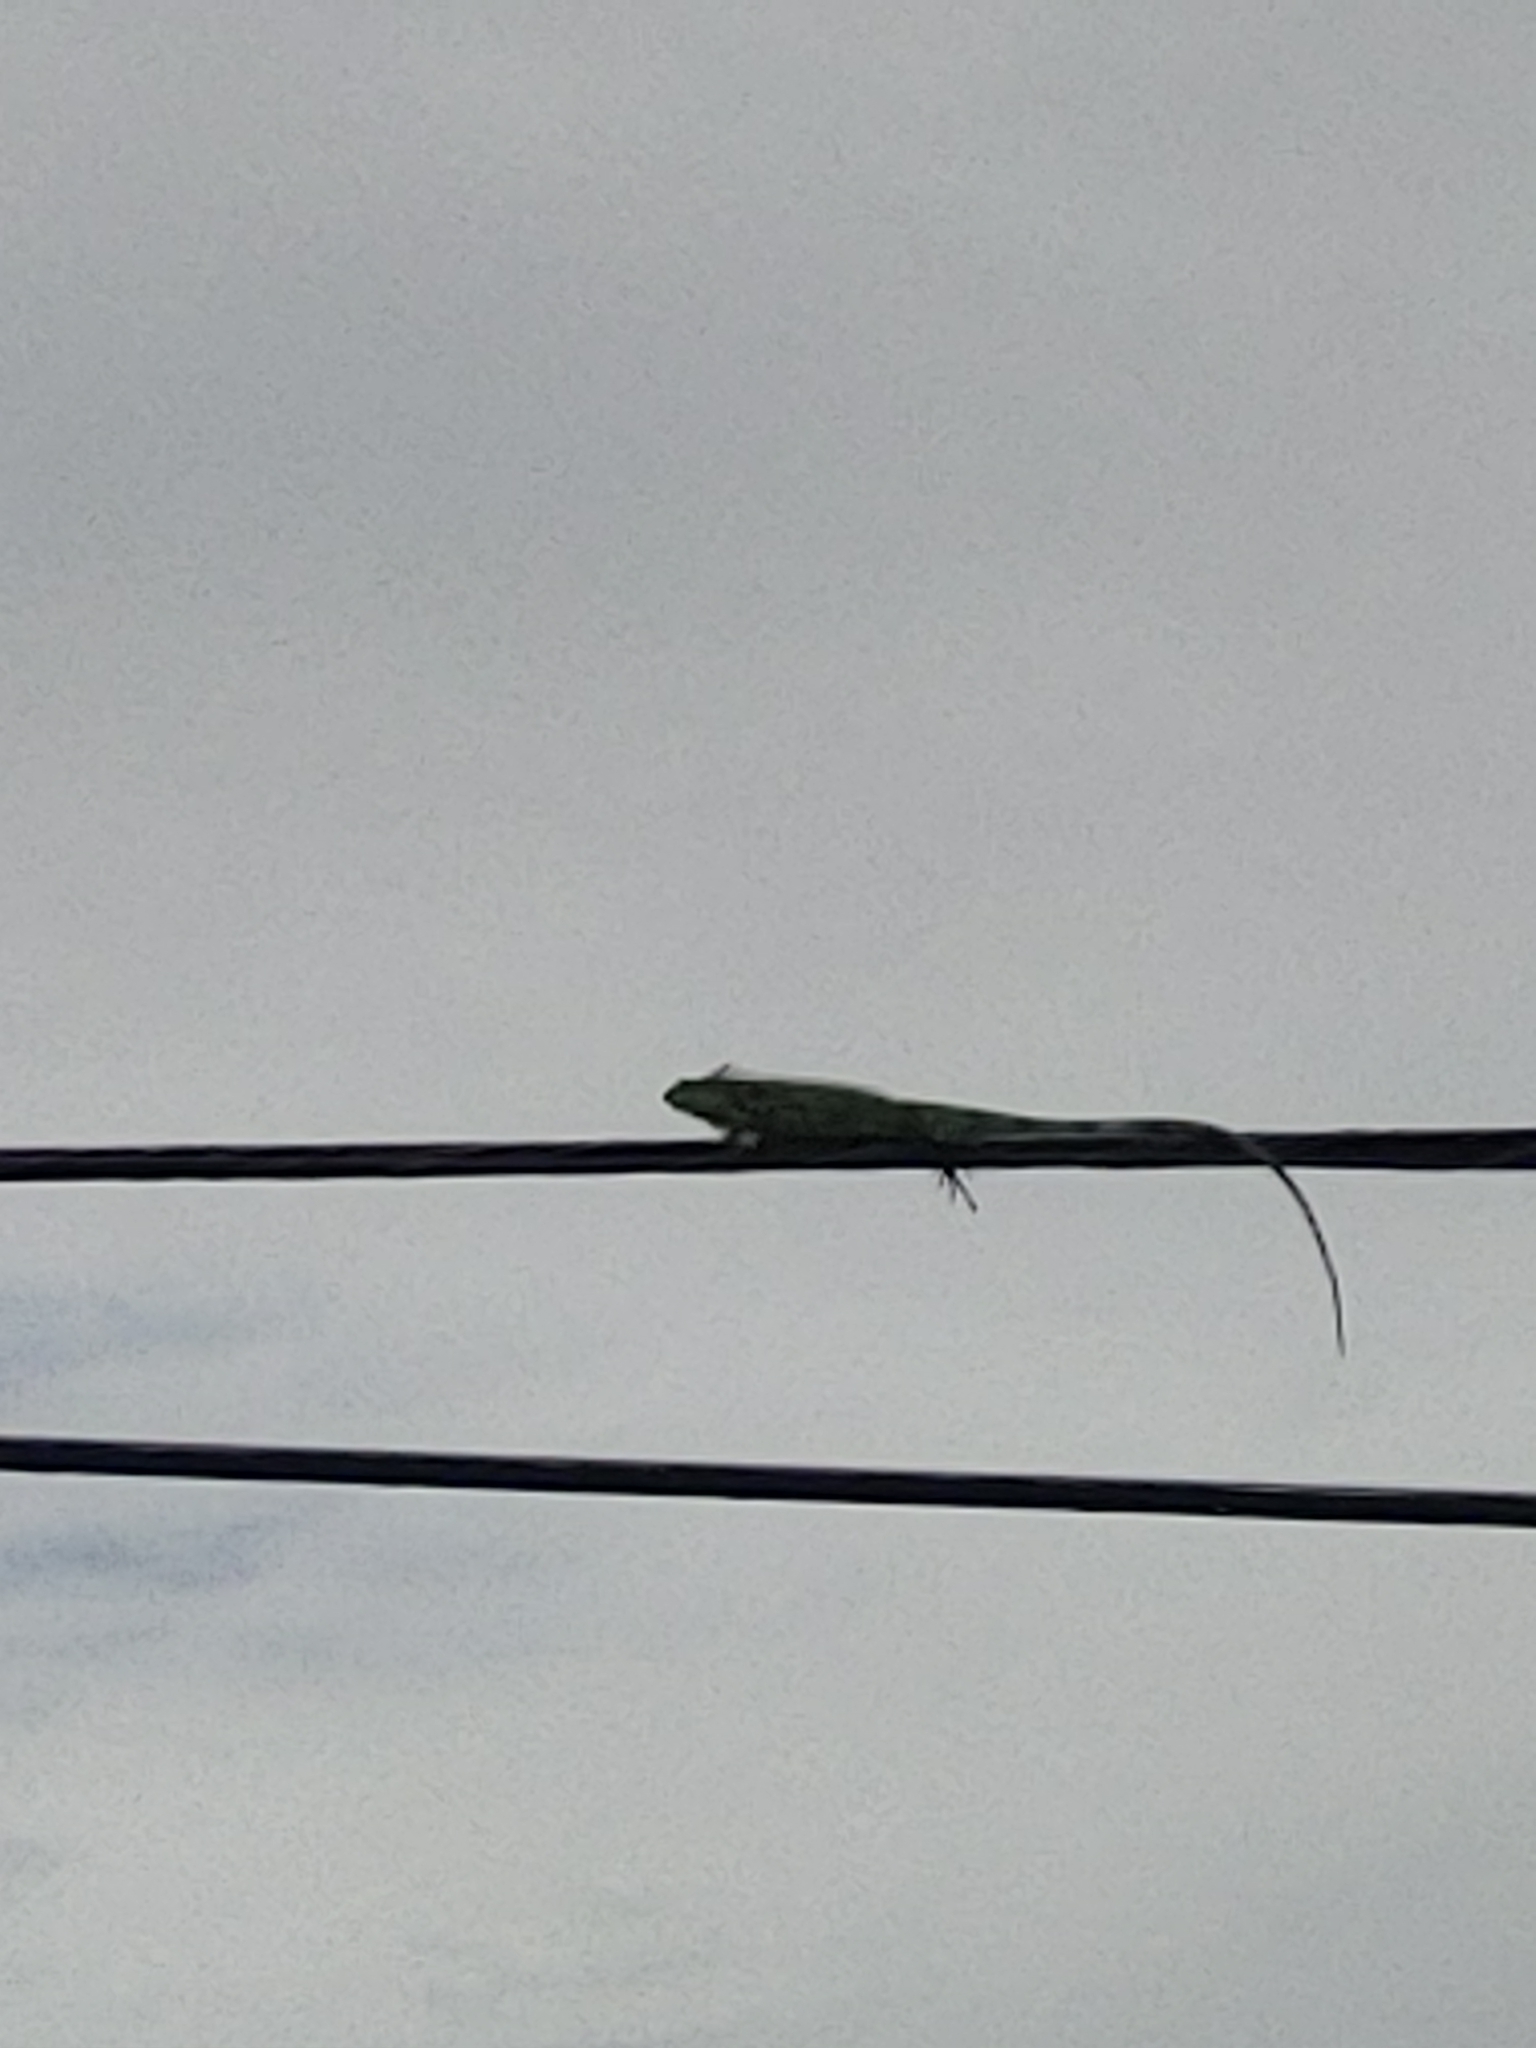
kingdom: Animalia
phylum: Chordata
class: Squamata
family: Iguanidae
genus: Iguana
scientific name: Iguana iguana
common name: Green iguana
